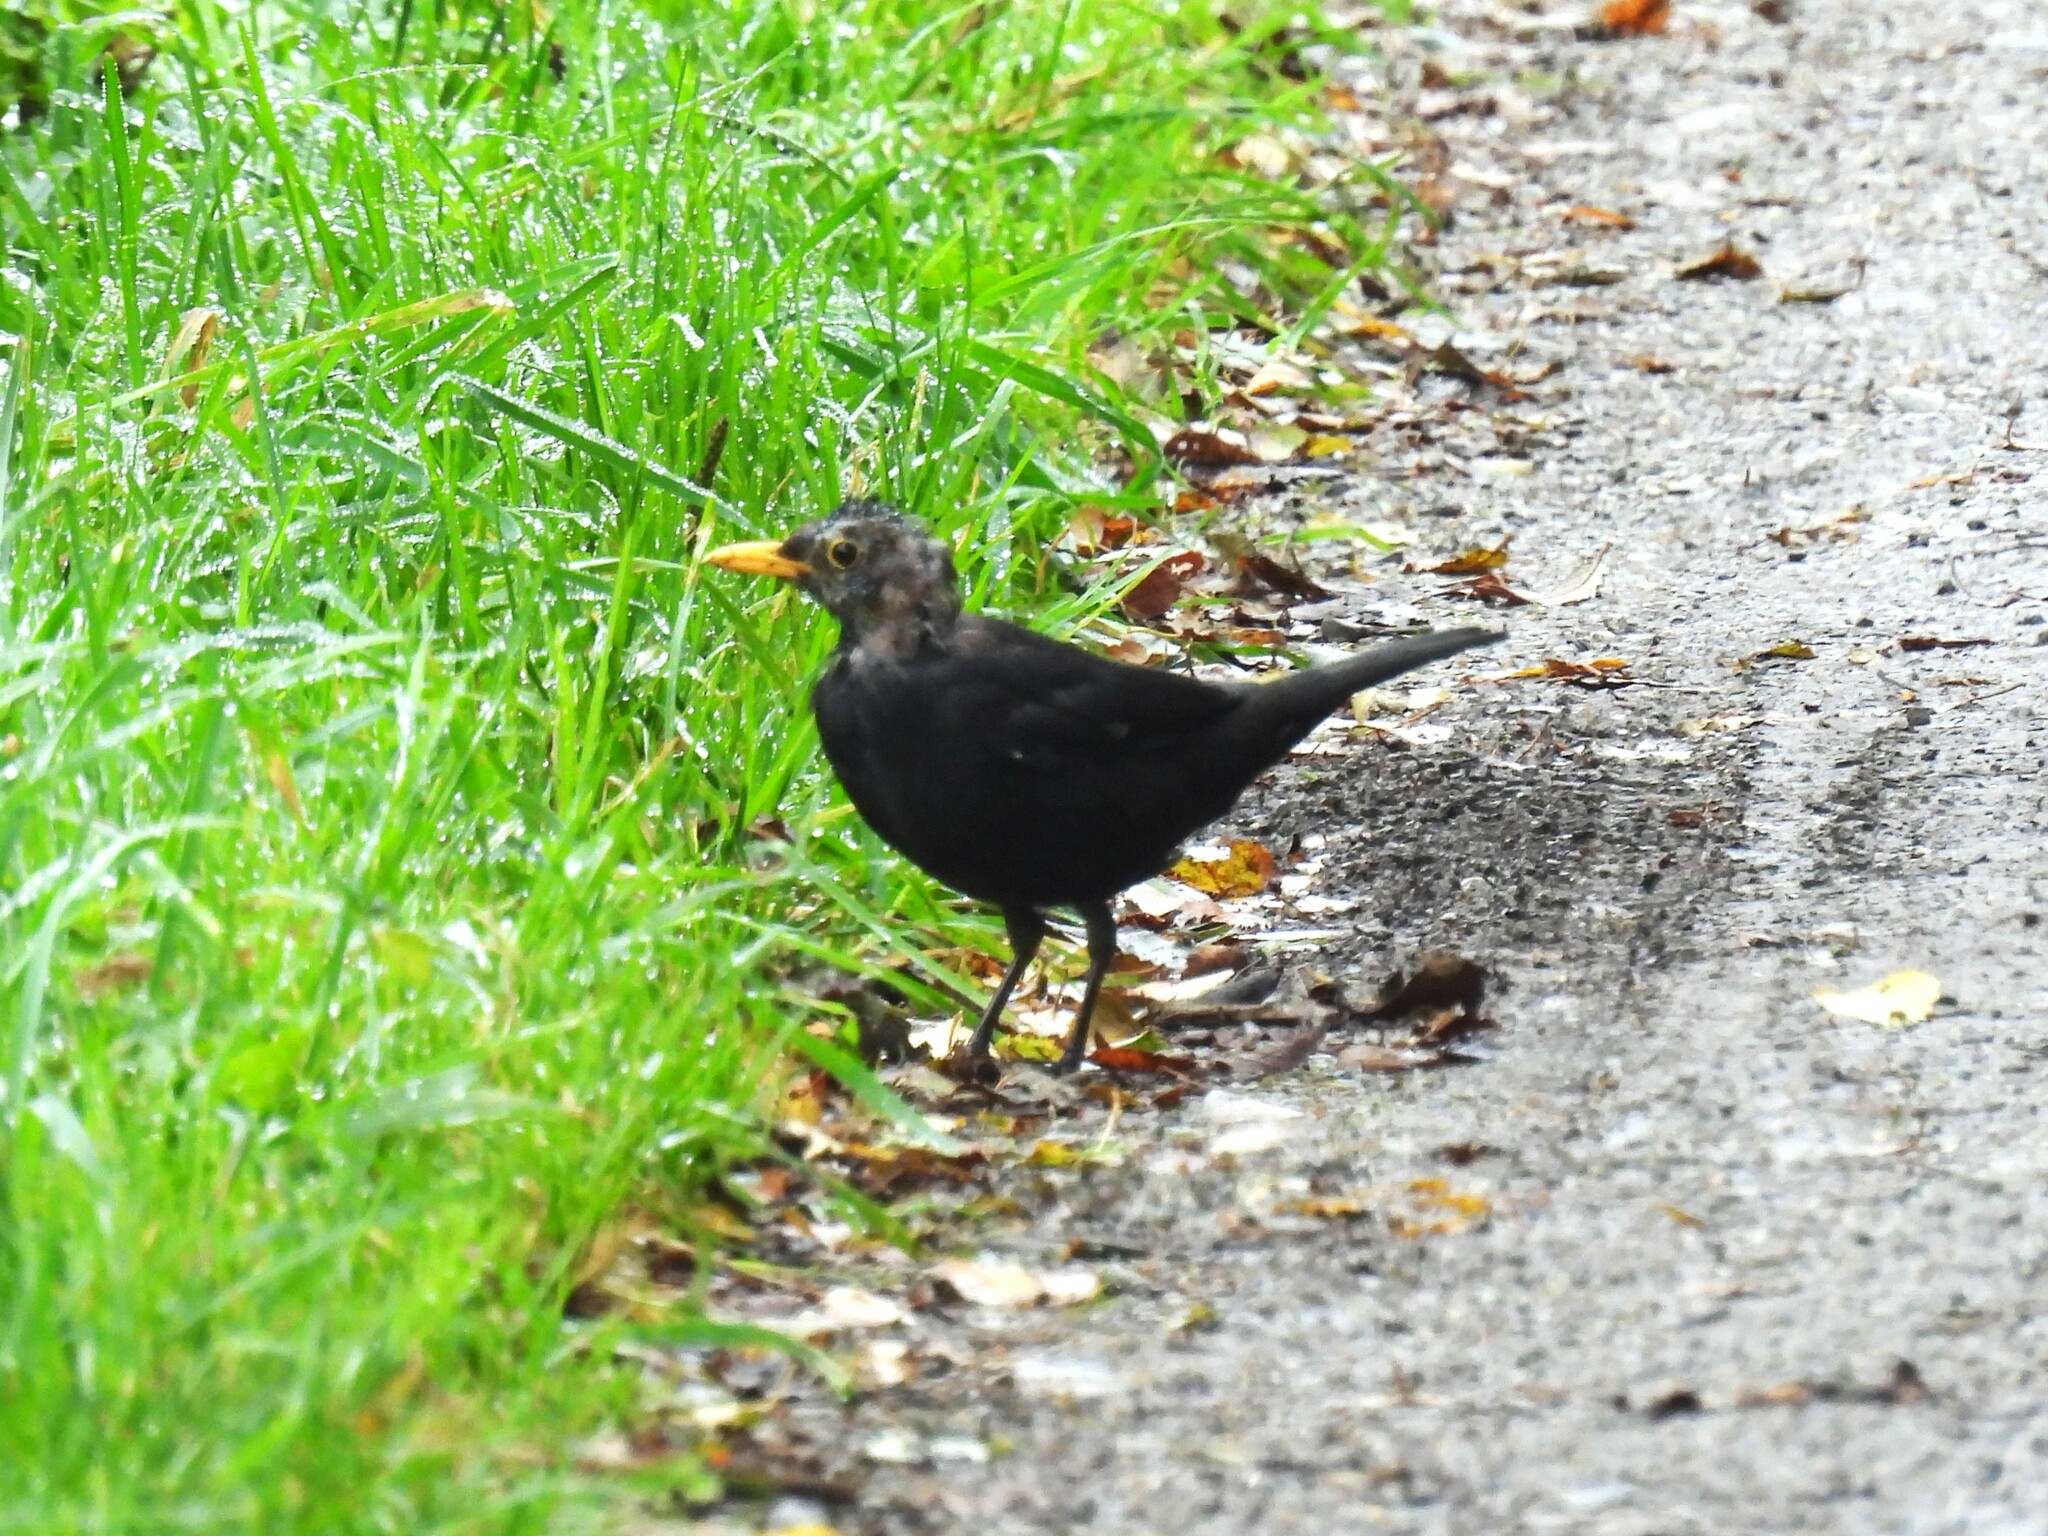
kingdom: Animalia
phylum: Chordata
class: Aves
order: Passeriformes
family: Turdidae
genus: Turdus
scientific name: Turdus merula
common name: Common blackbird
